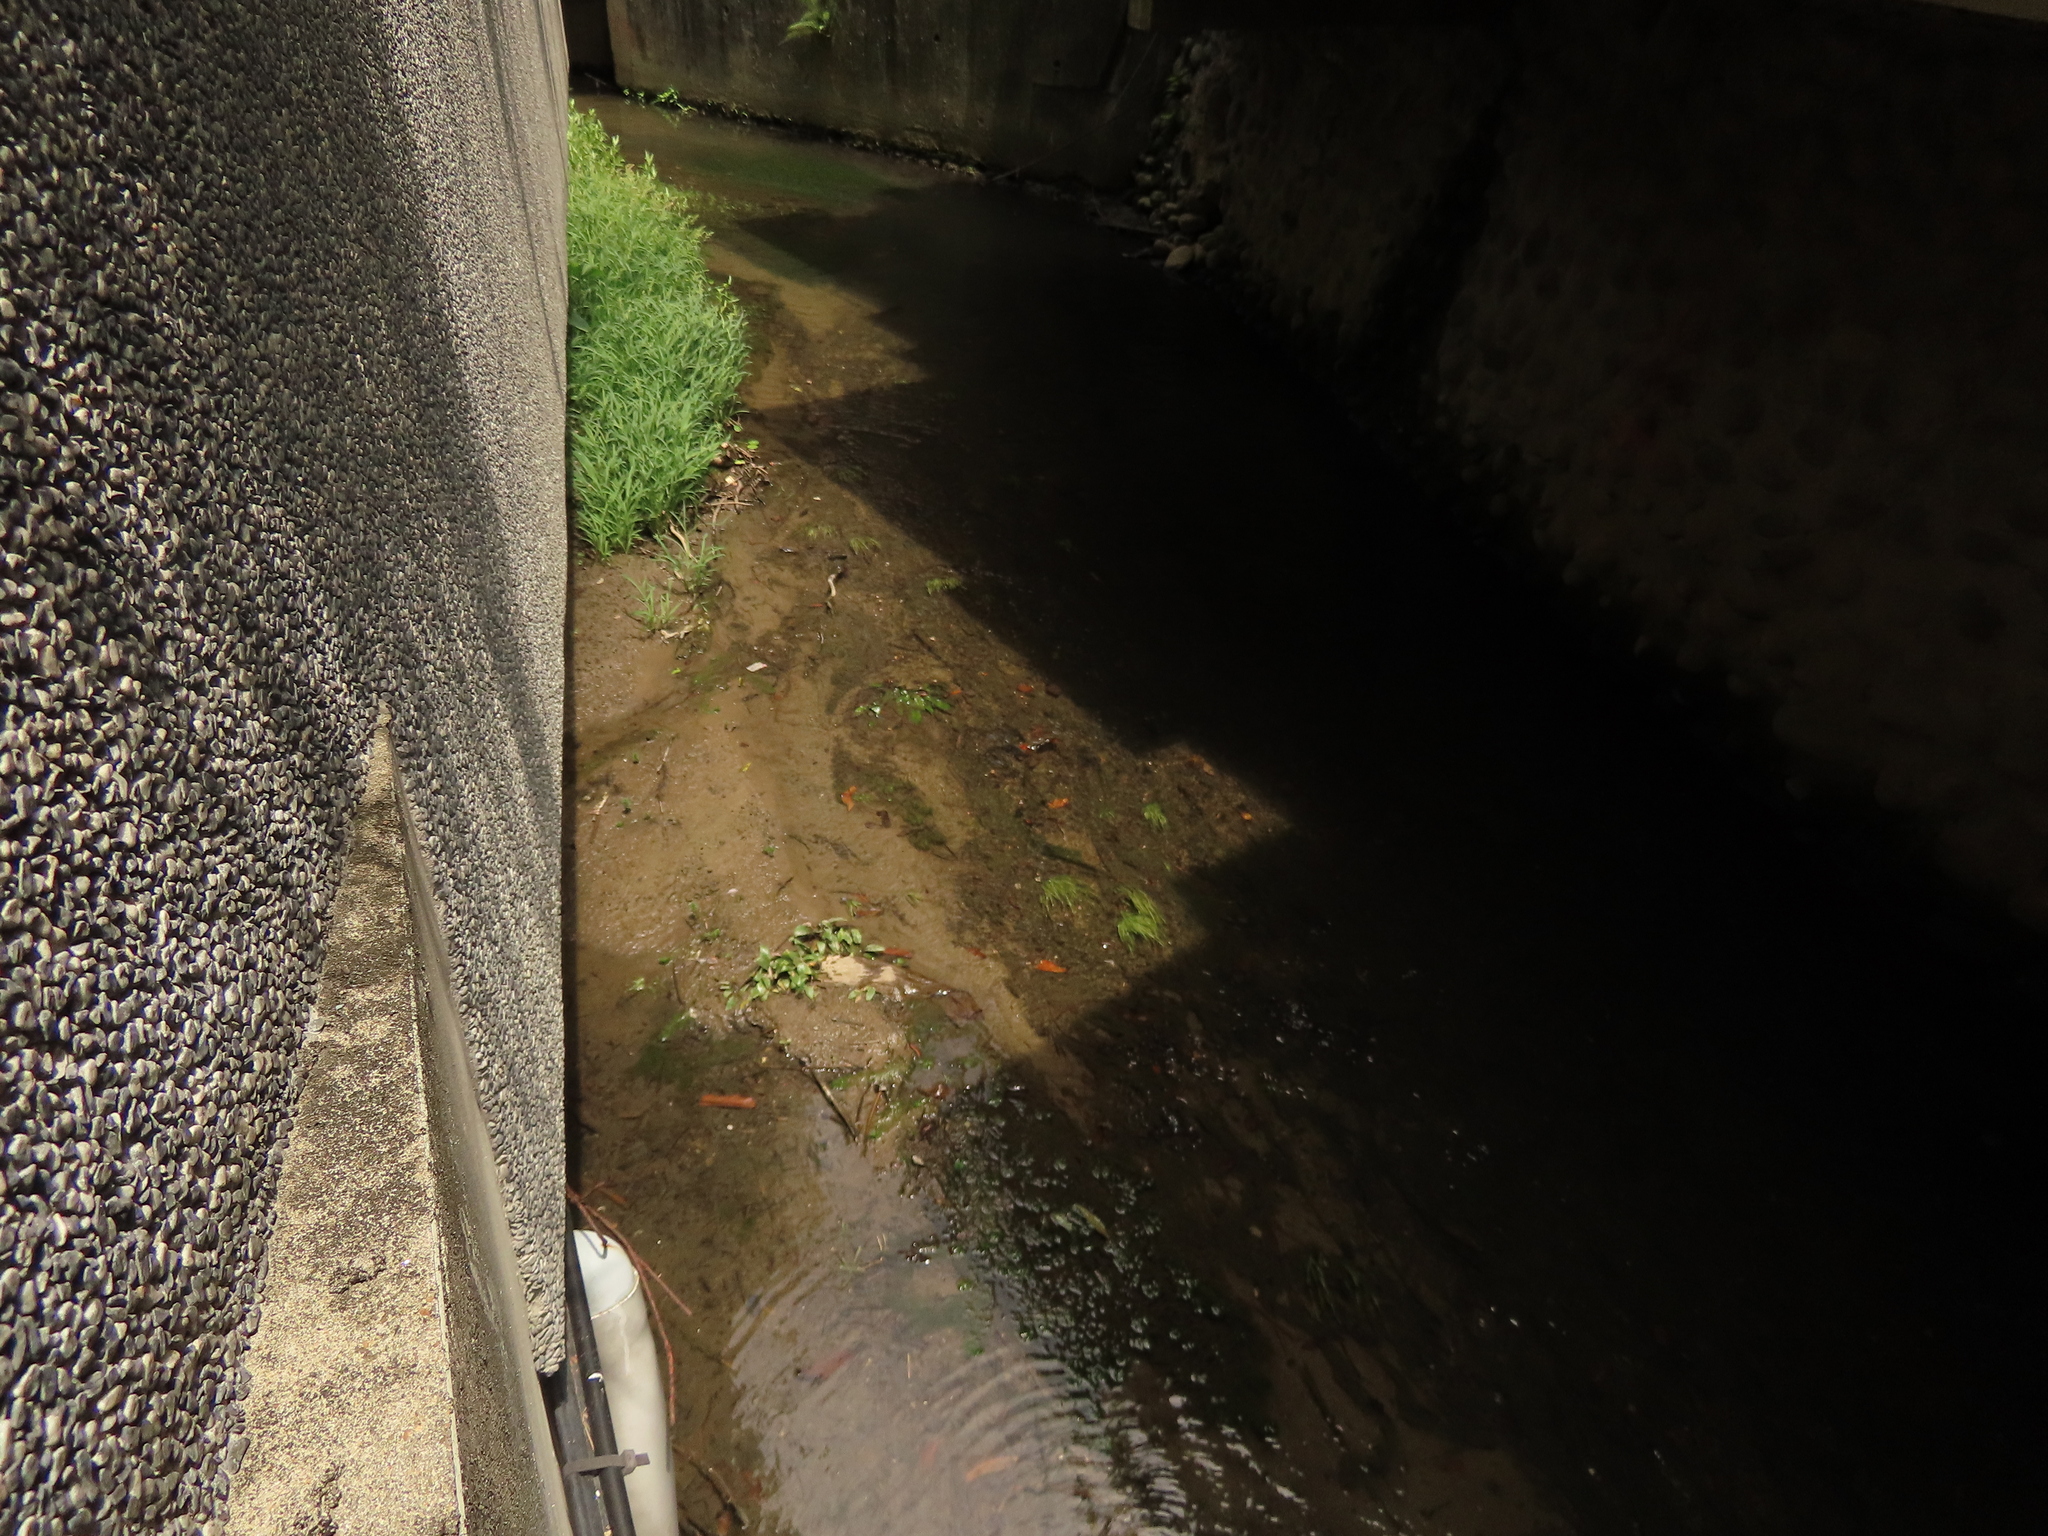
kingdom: Plantae
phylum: Tracheophyta
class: Liliopsida
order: Alismatales
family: Hydrocharitaceae
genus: Blyxa
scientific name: Blyxa echinosperma
